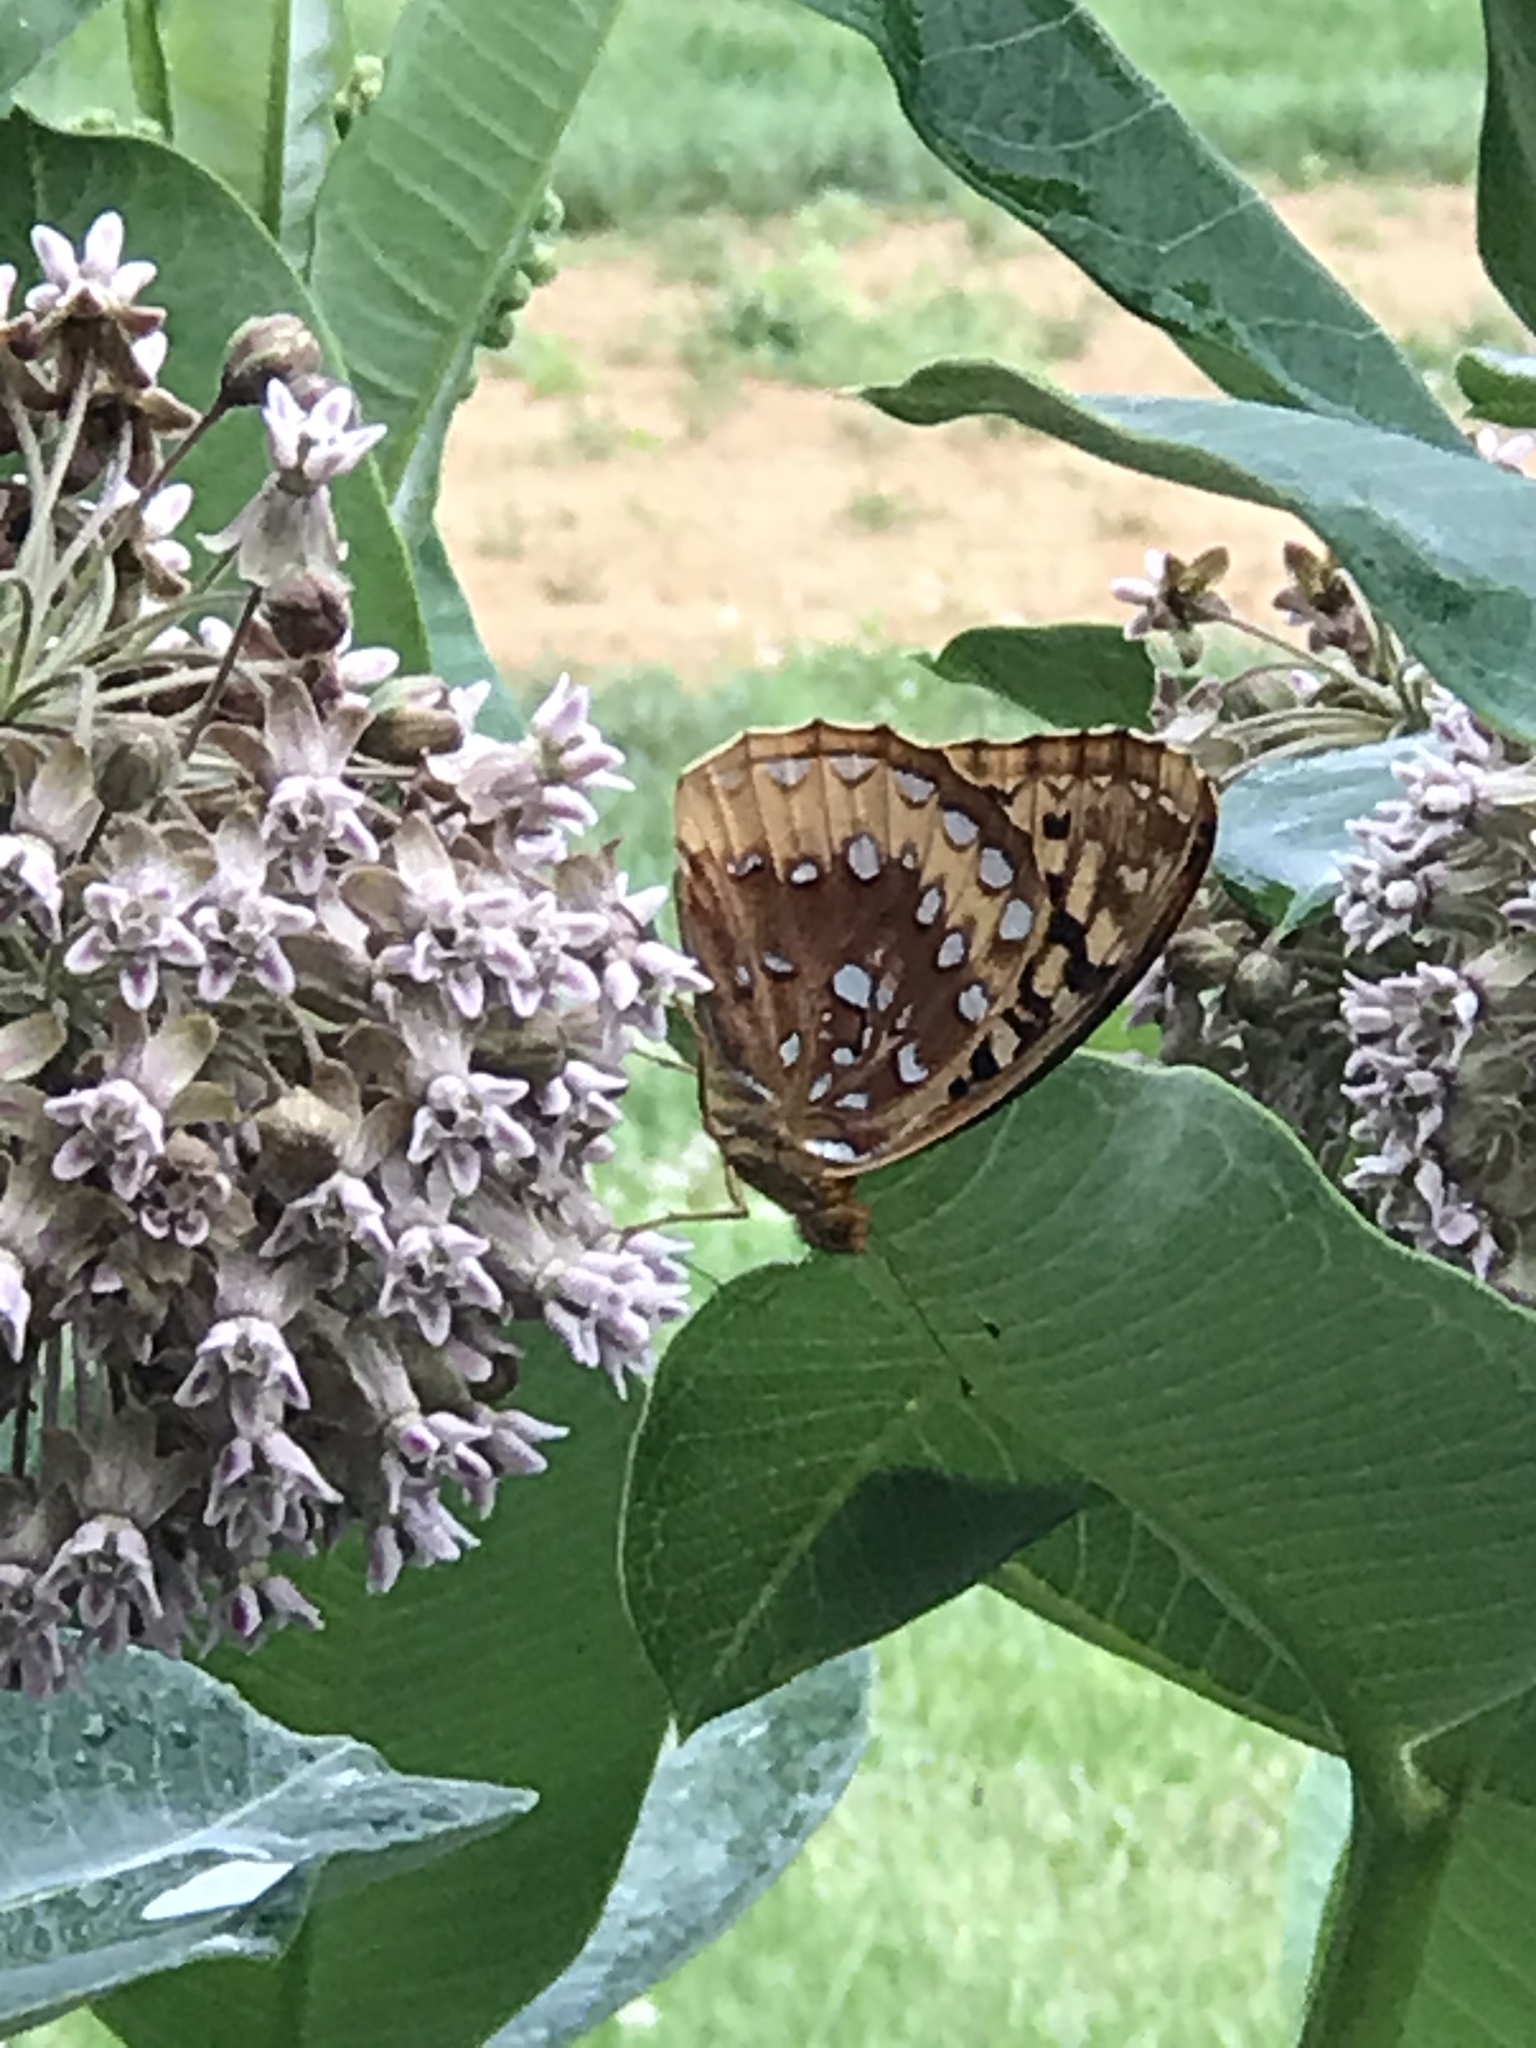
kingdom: Animalia
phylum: Arthropoda
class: Insecta
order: Lepidoptera
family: Nymphalidae
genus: Speyeria
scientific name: Speyeria cybele
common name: Great spangled fritillary
